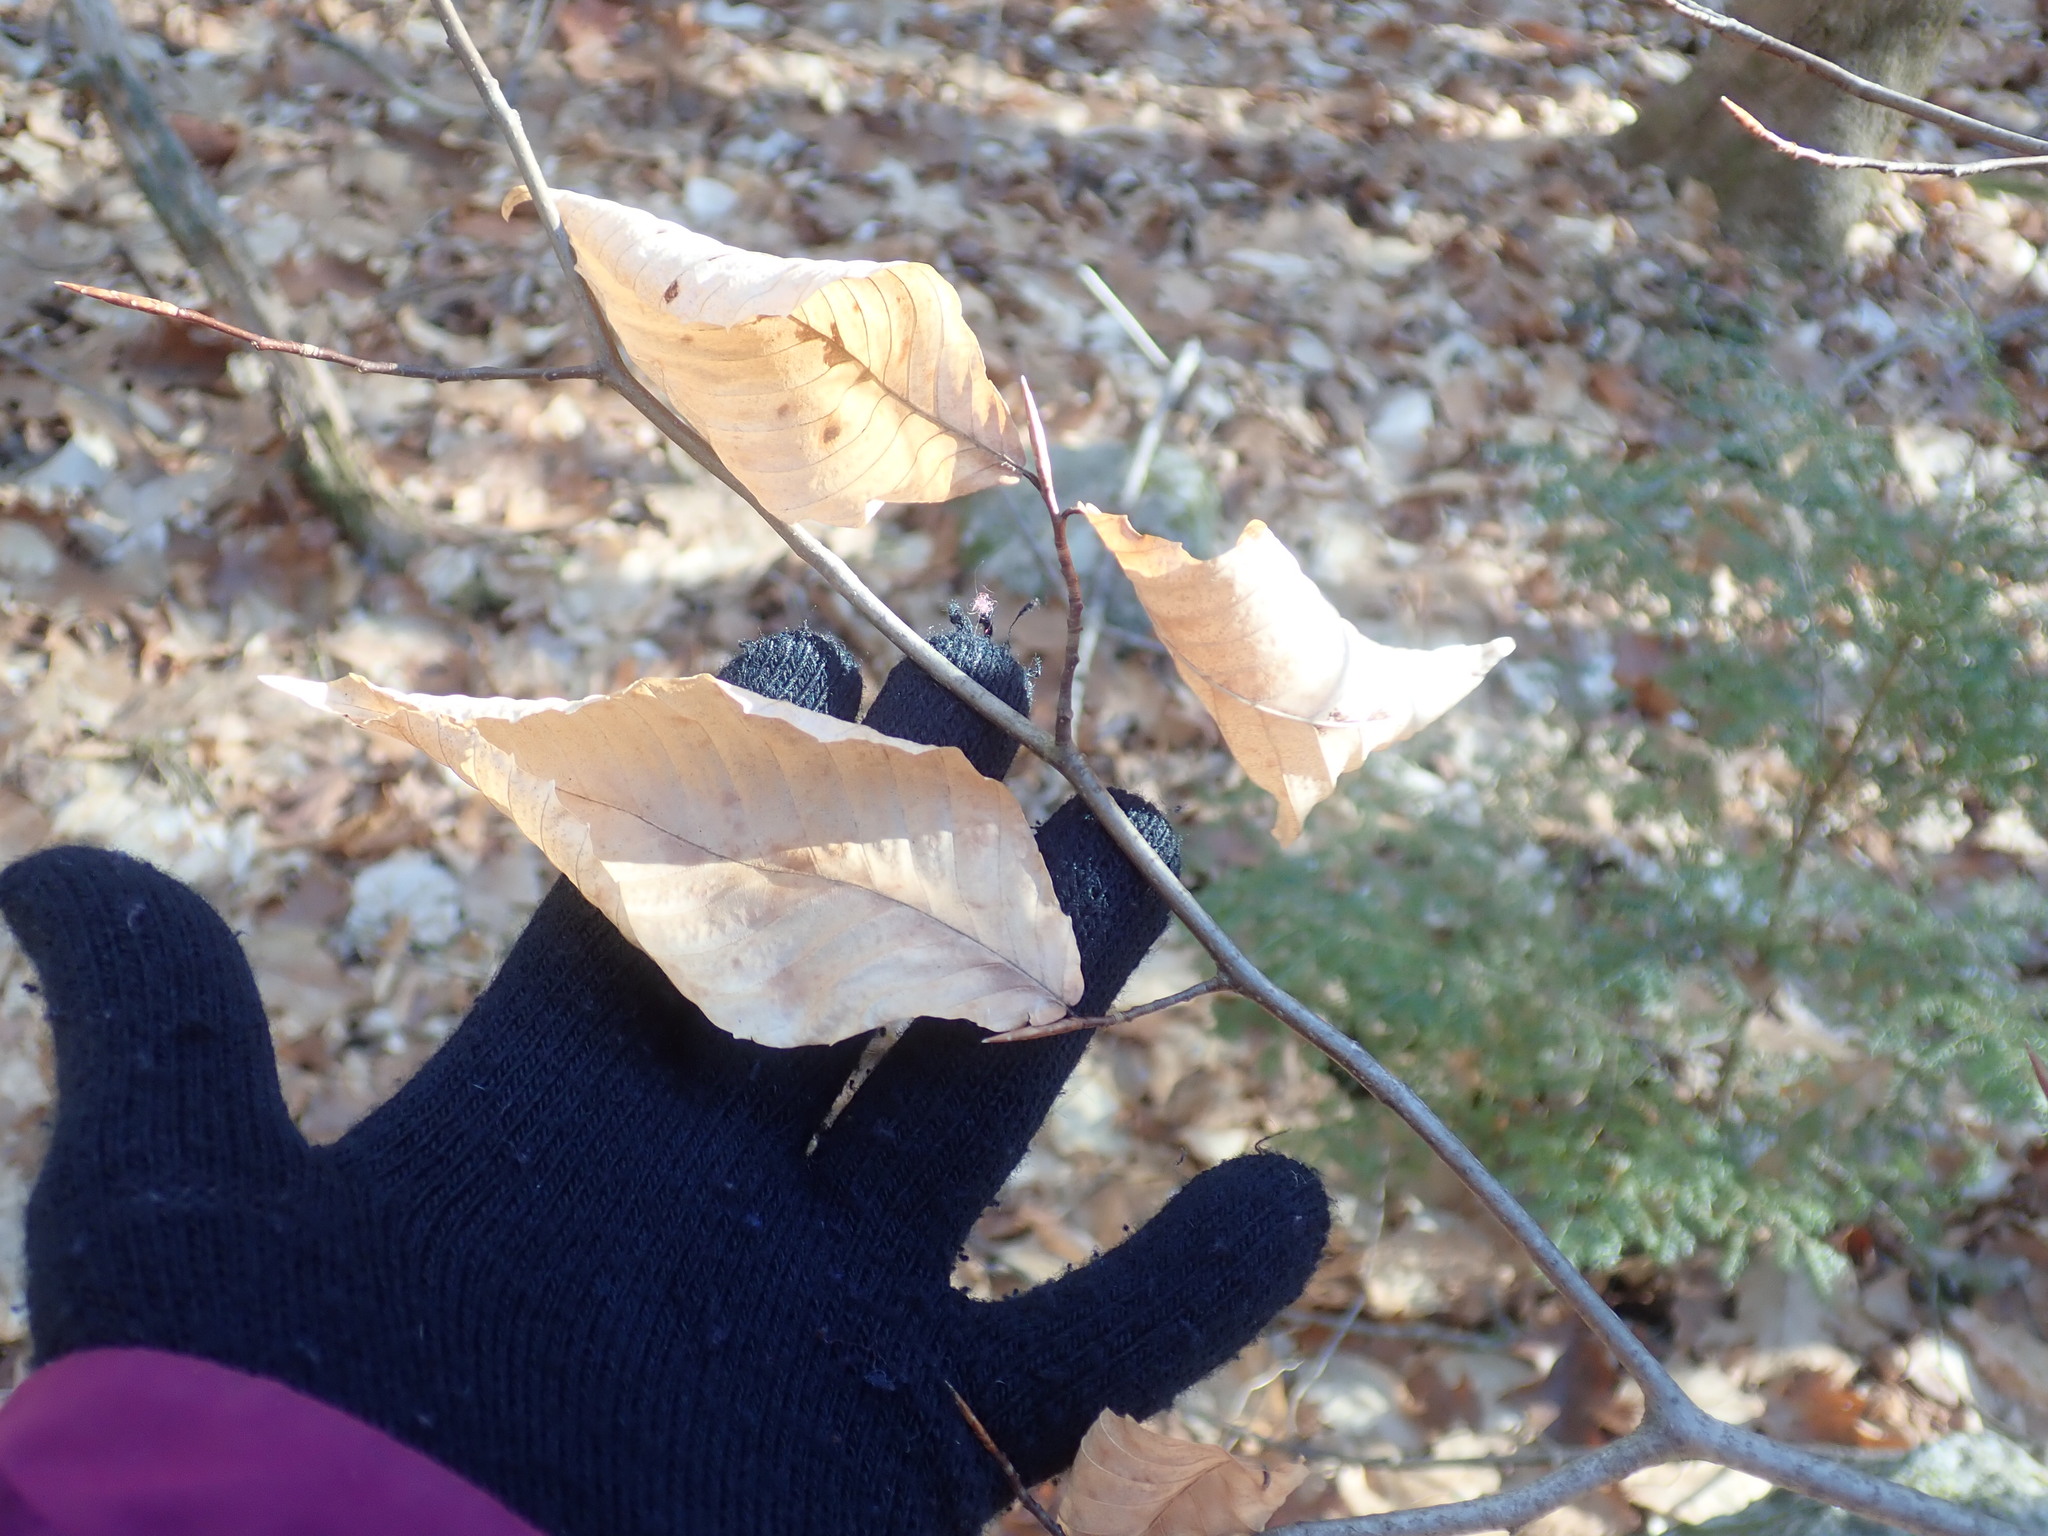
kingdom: Plantae
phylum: Tracheophyta
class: Magnoliopsida
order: Fagales
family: Fagaceae
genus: Fagus
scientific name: Fagus grandifolia
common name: American beech
